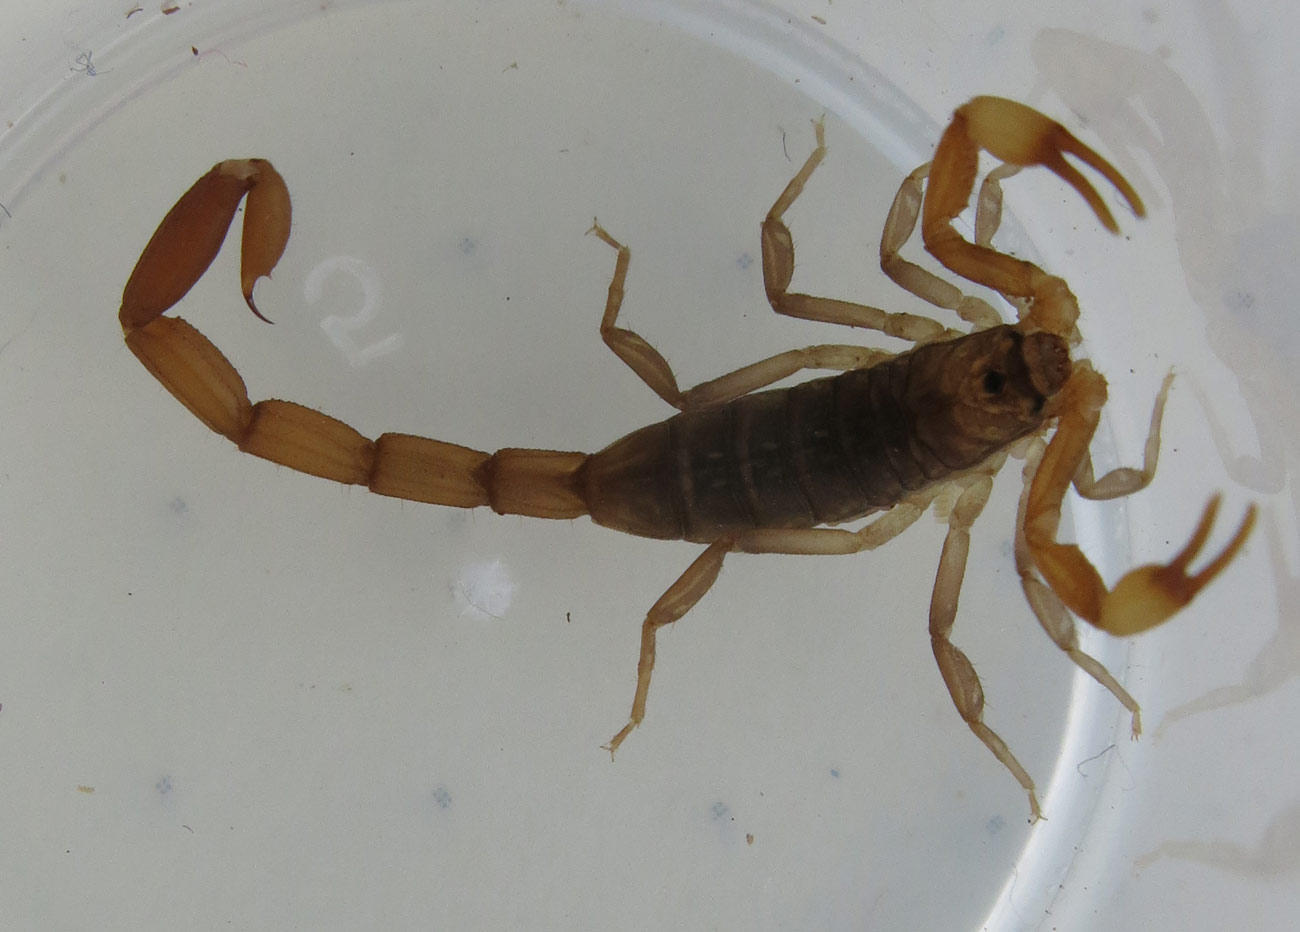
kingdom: Animalia
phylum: Arthropoda
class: Arachnida
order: Scorpiones
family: Buthidae
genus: Pseudolychas
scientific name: Pseudolychas ochraceus
